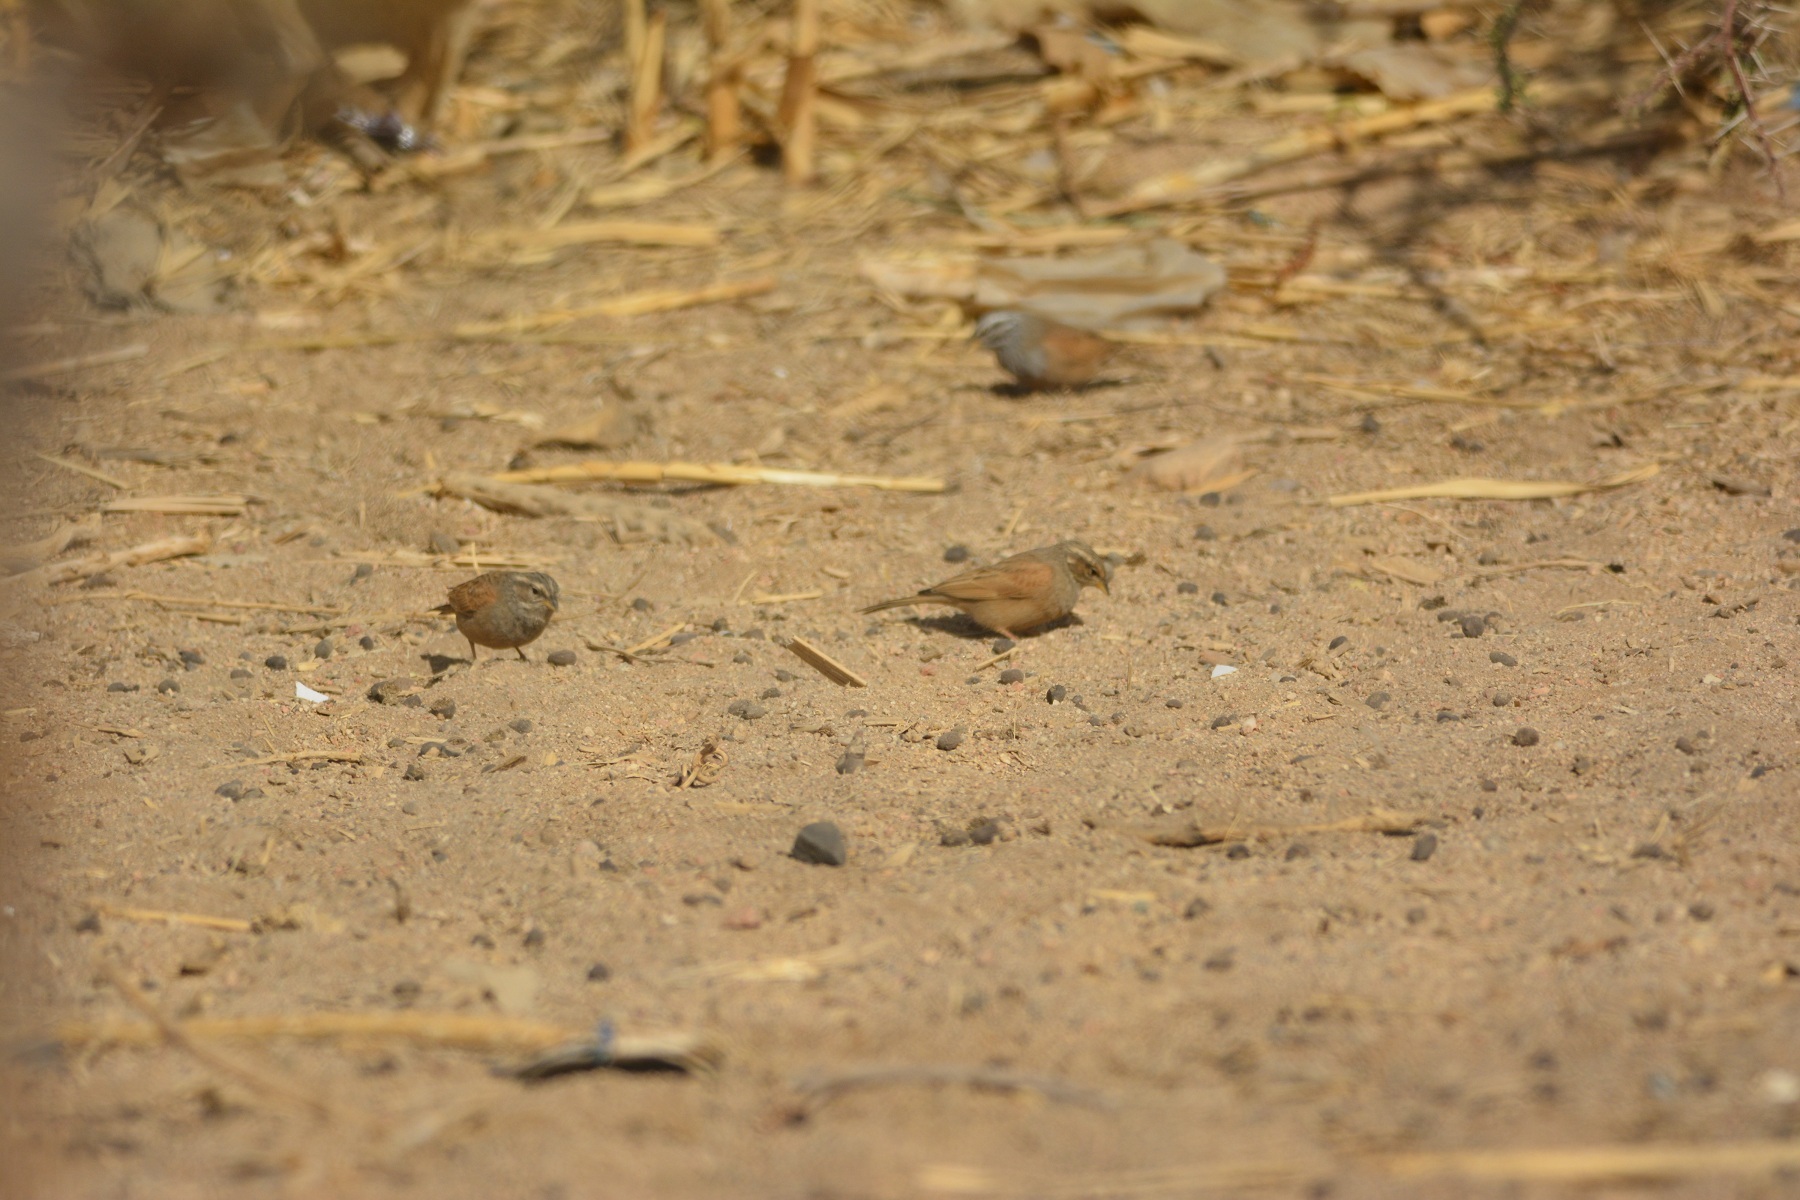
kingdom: Animalia
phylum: Chordata
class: Aves
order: Passeriformes
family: Emberizidae
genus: Emberiza
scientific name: Emberiza sahari
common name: House bunting
